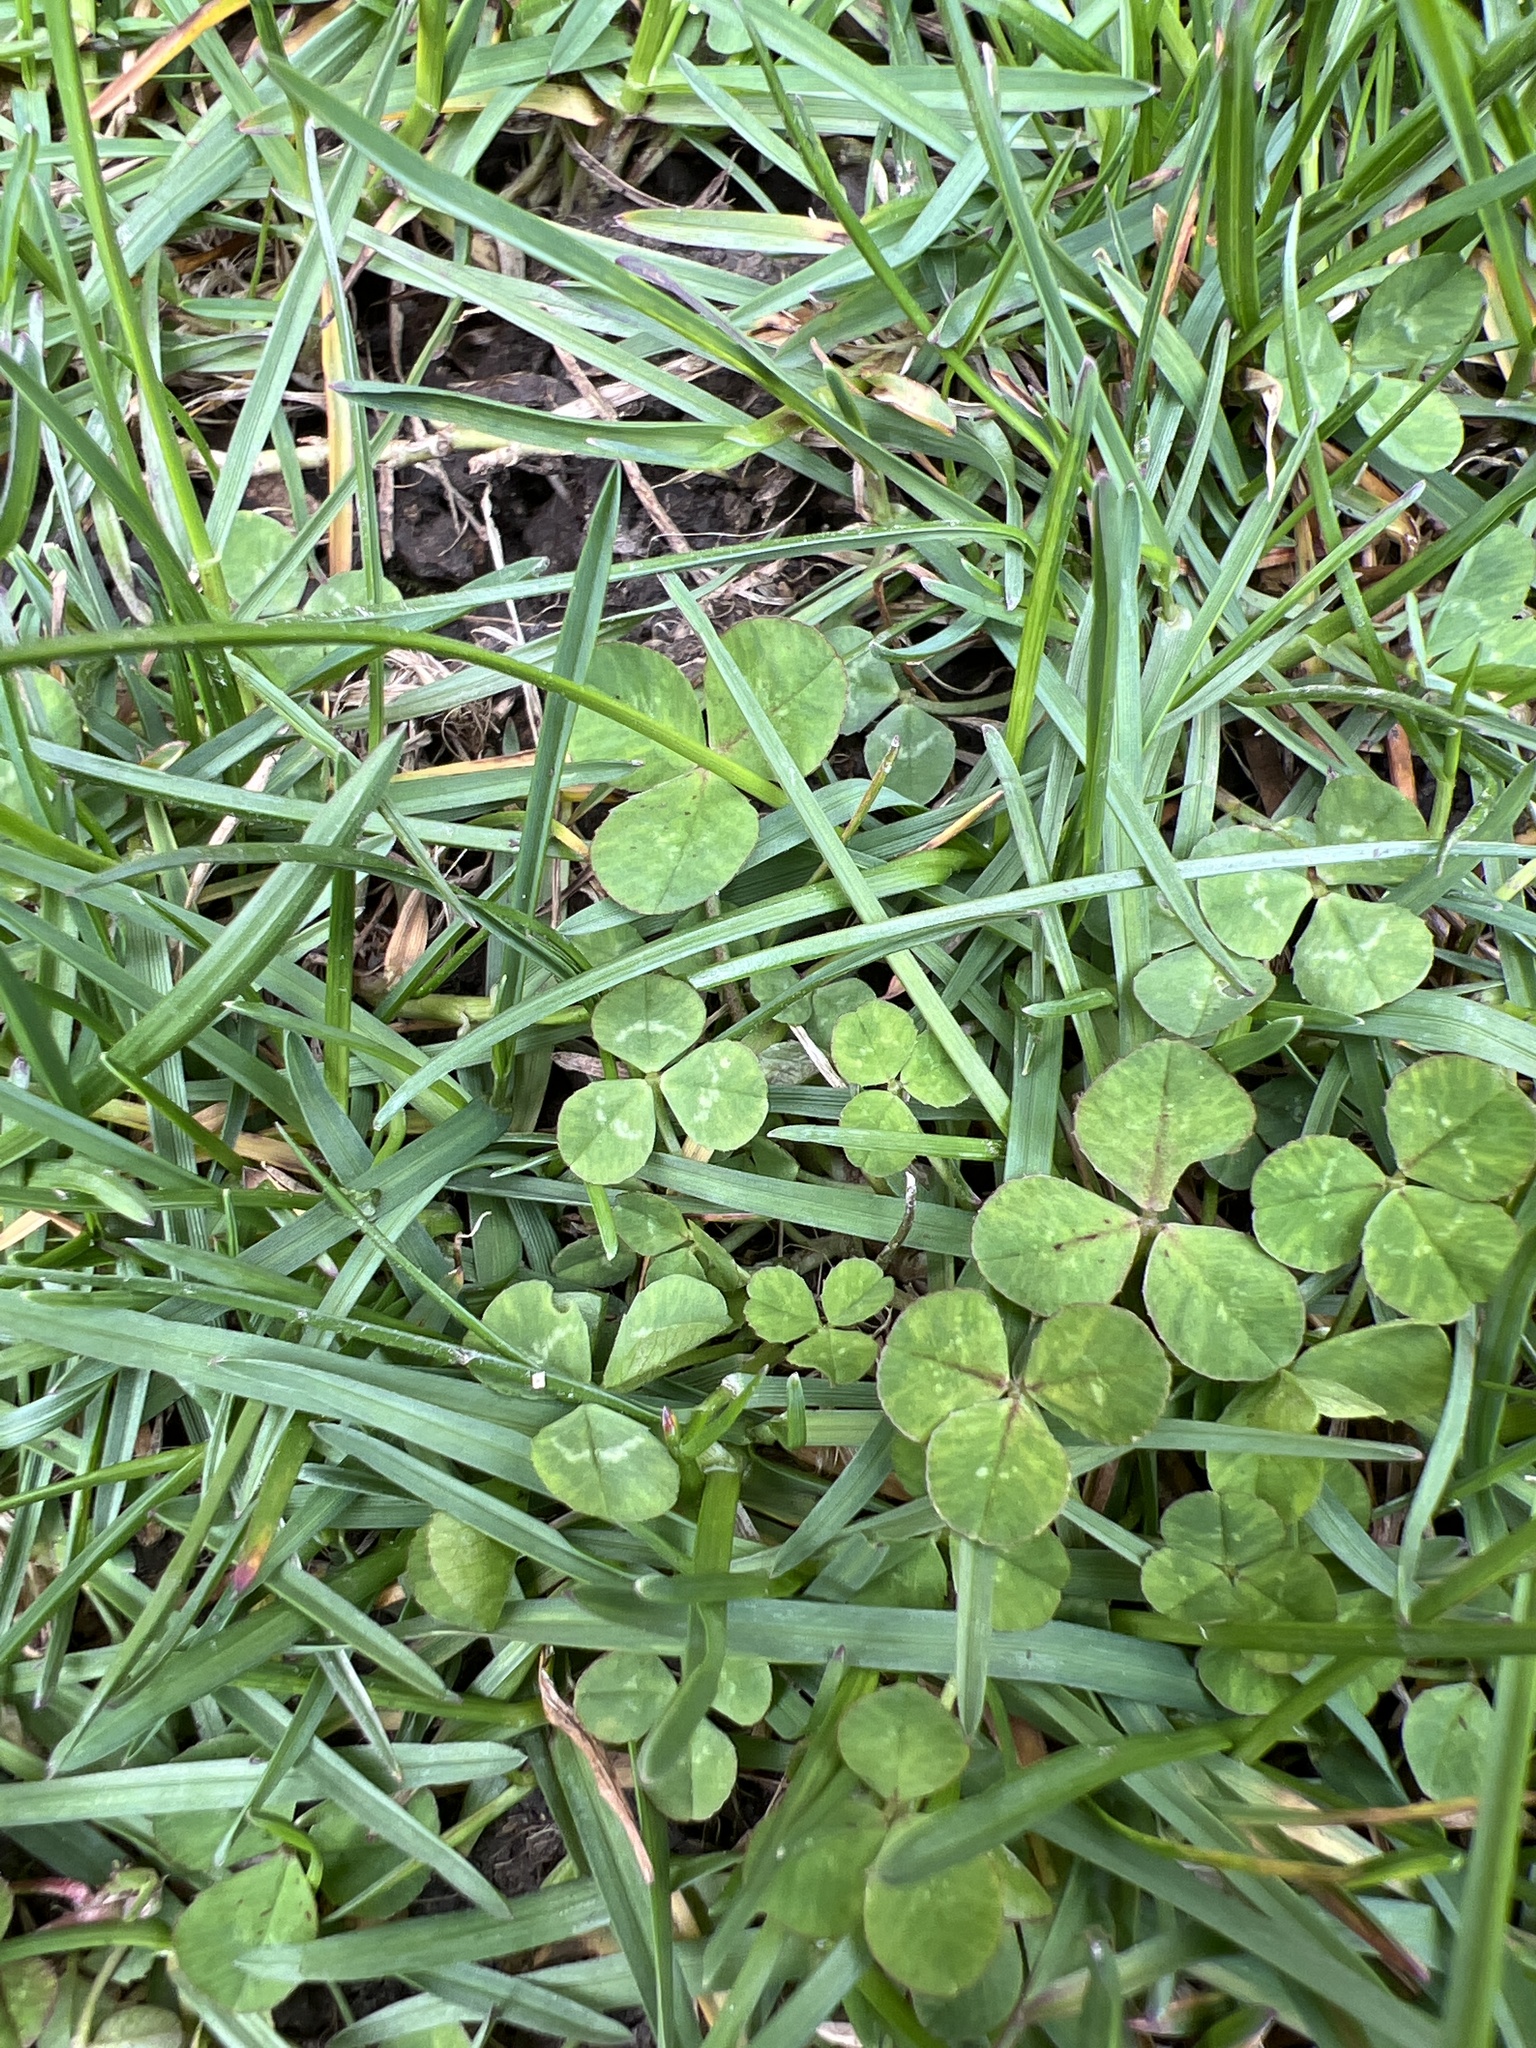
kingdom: Plantae
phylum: Tracheophyta
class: Magnoliopsida
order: Fabales
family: Fabaceae
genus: Trifolium
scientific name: Trifolium repens
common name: White clover
